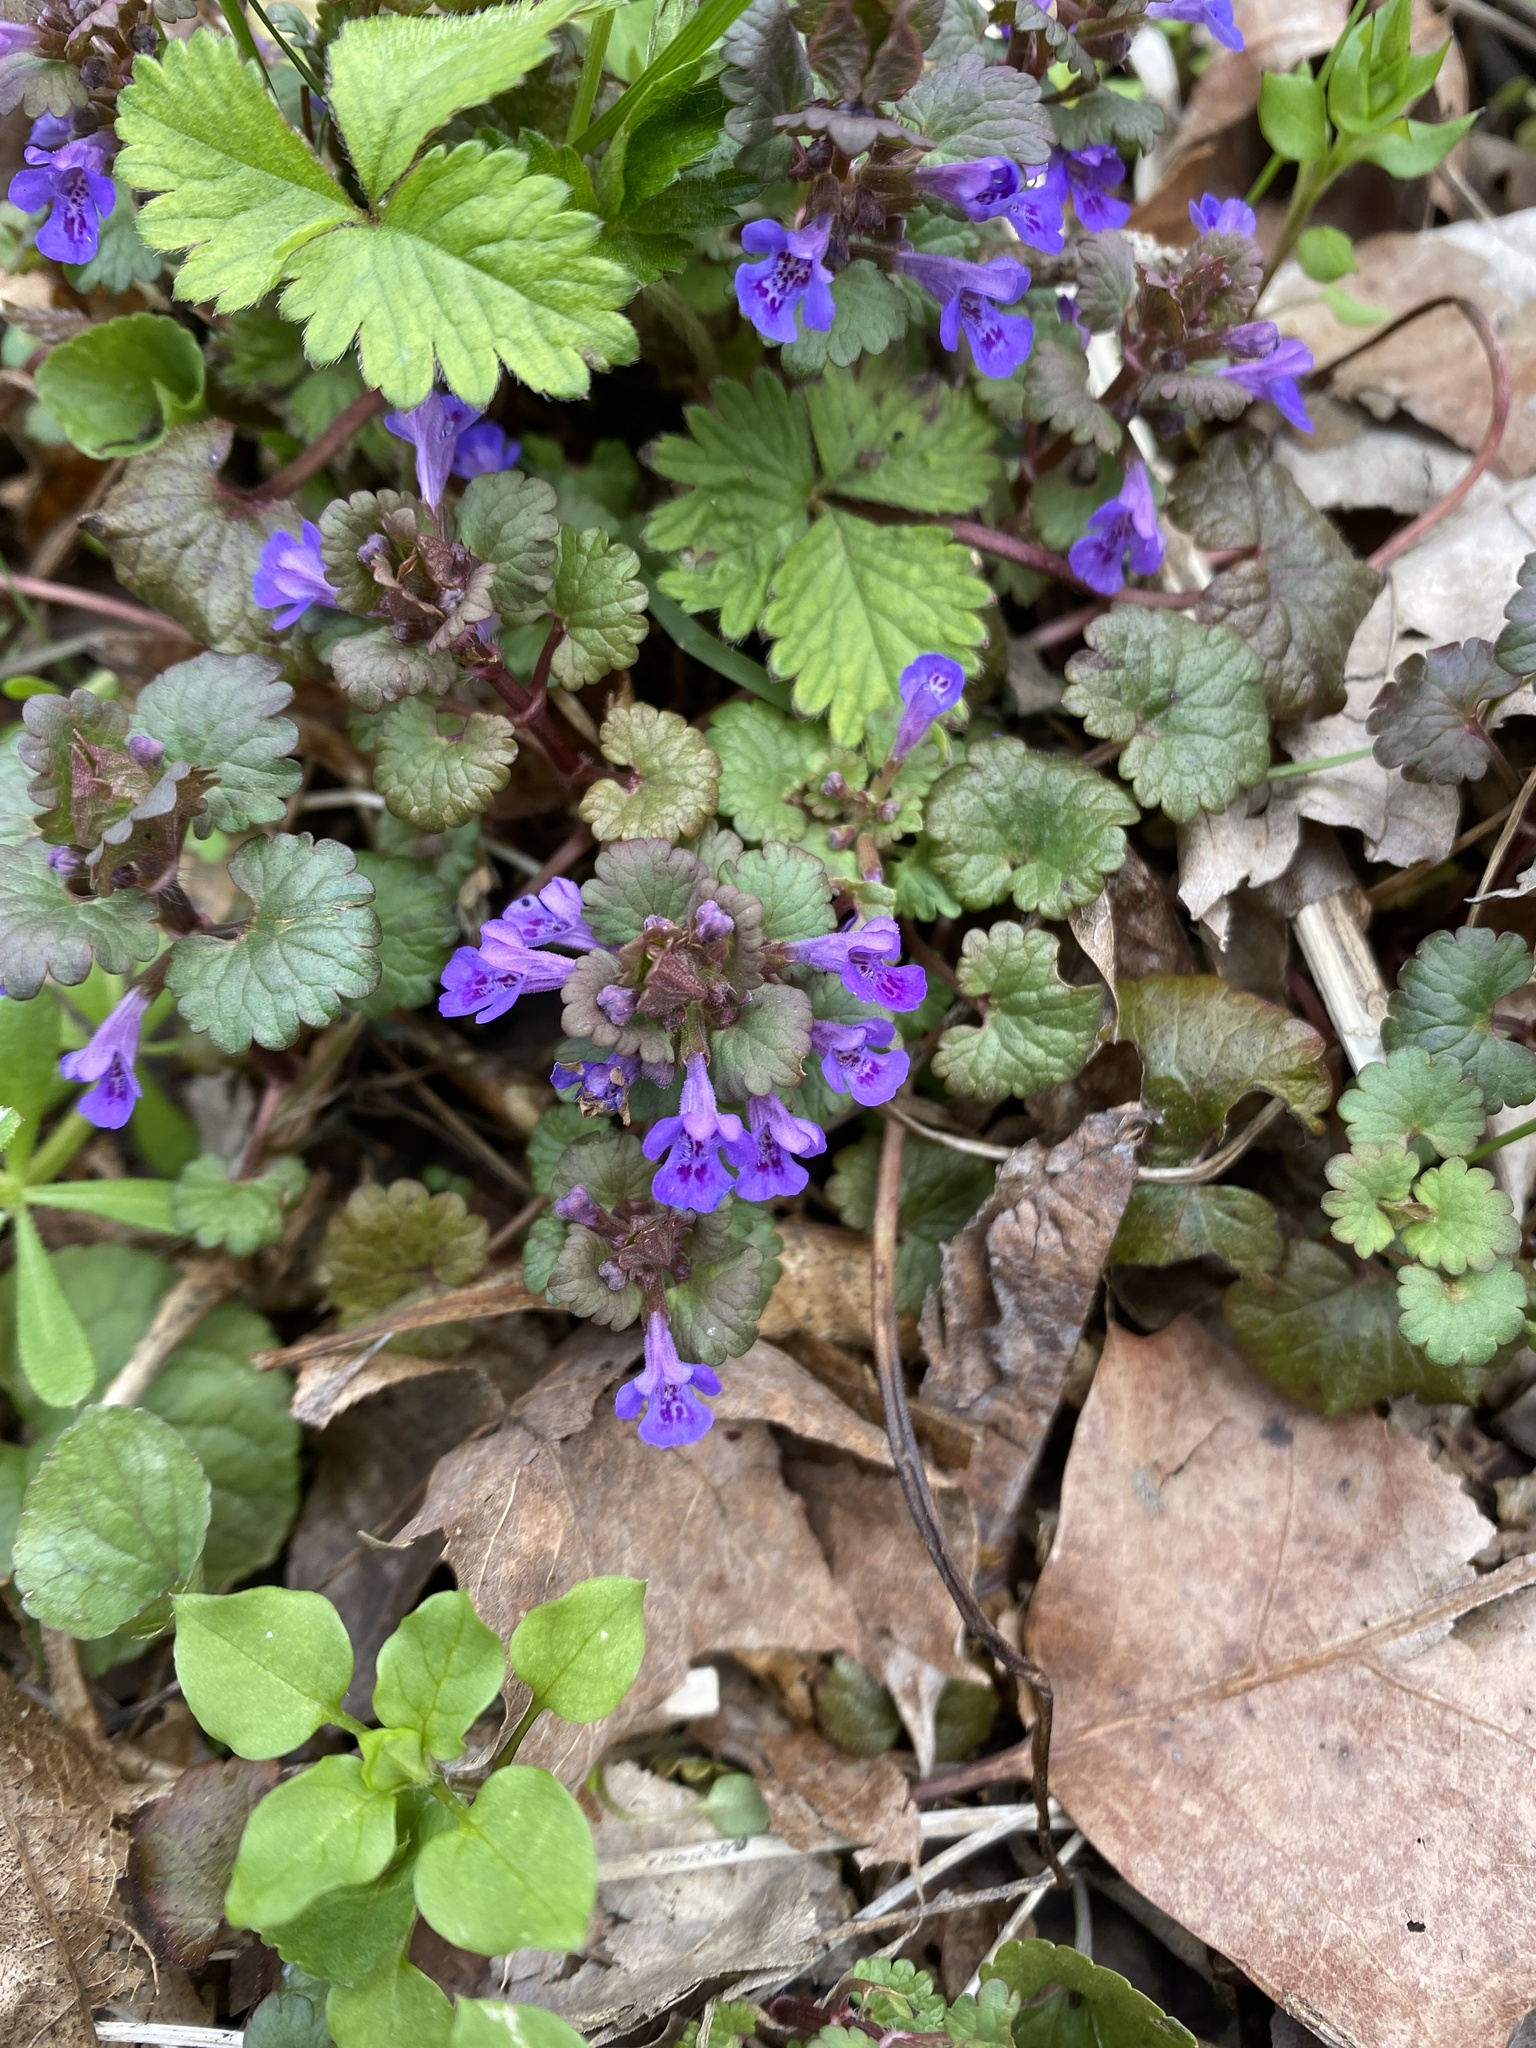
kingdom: Plantae
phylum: Tracheophyta
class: Magnoliopsida
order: Lamiales
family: Lamiaceae
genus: Glechoma
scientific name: Glechoma hederacea
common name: Ground ivy
